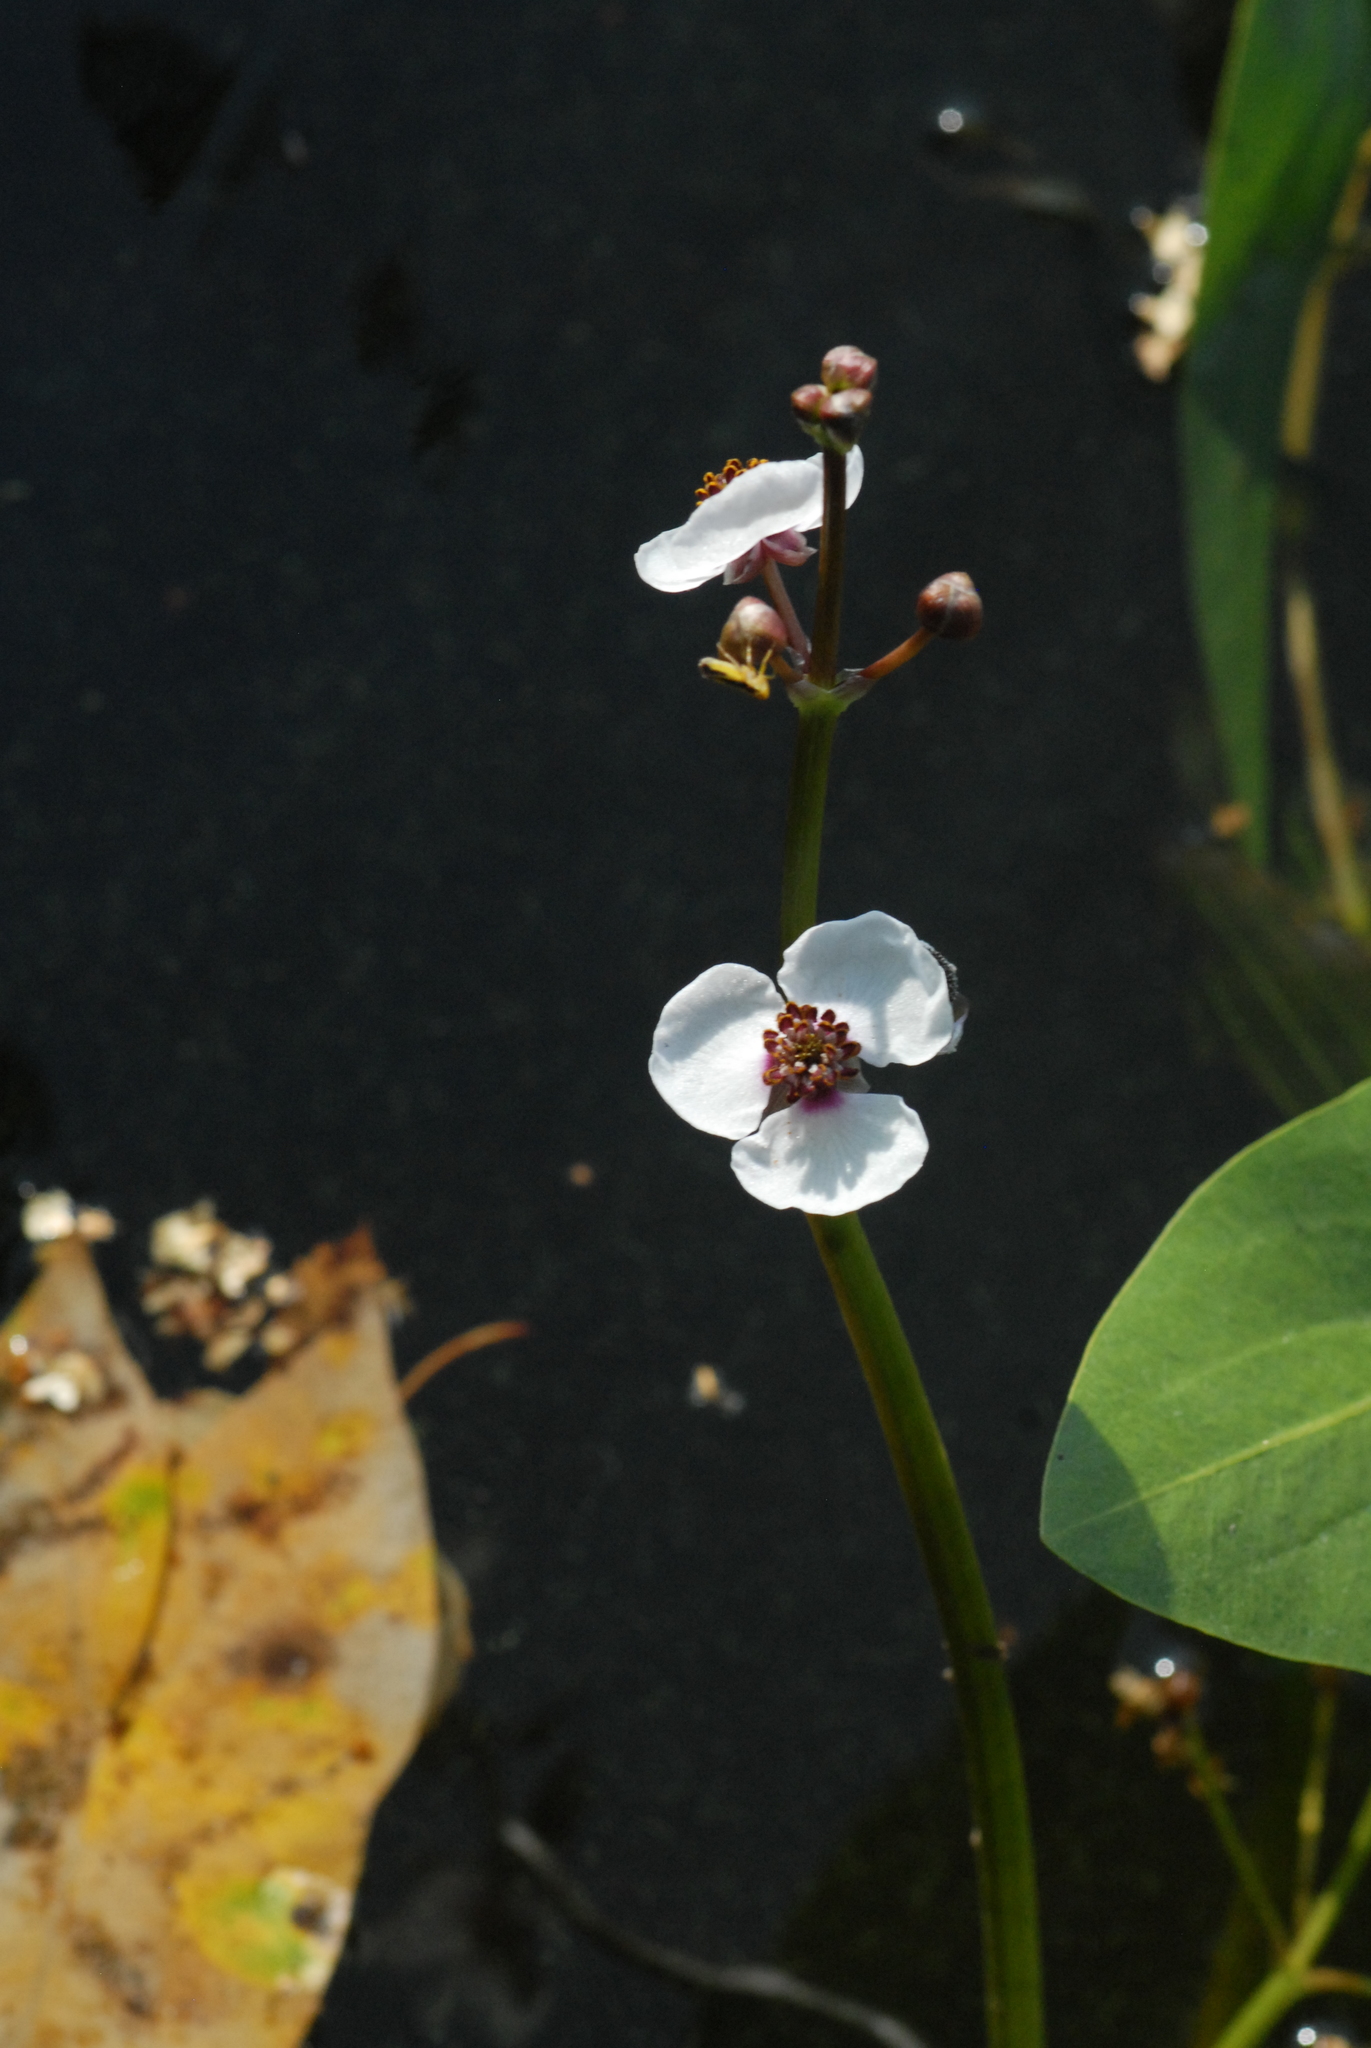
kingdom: Plantae
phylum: Tracheophyta
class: Liliopsida
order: Alismatales
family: Alismataceae
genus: Sagittaria
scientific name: Sagittaria sagittifolia
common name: Arrowhead
